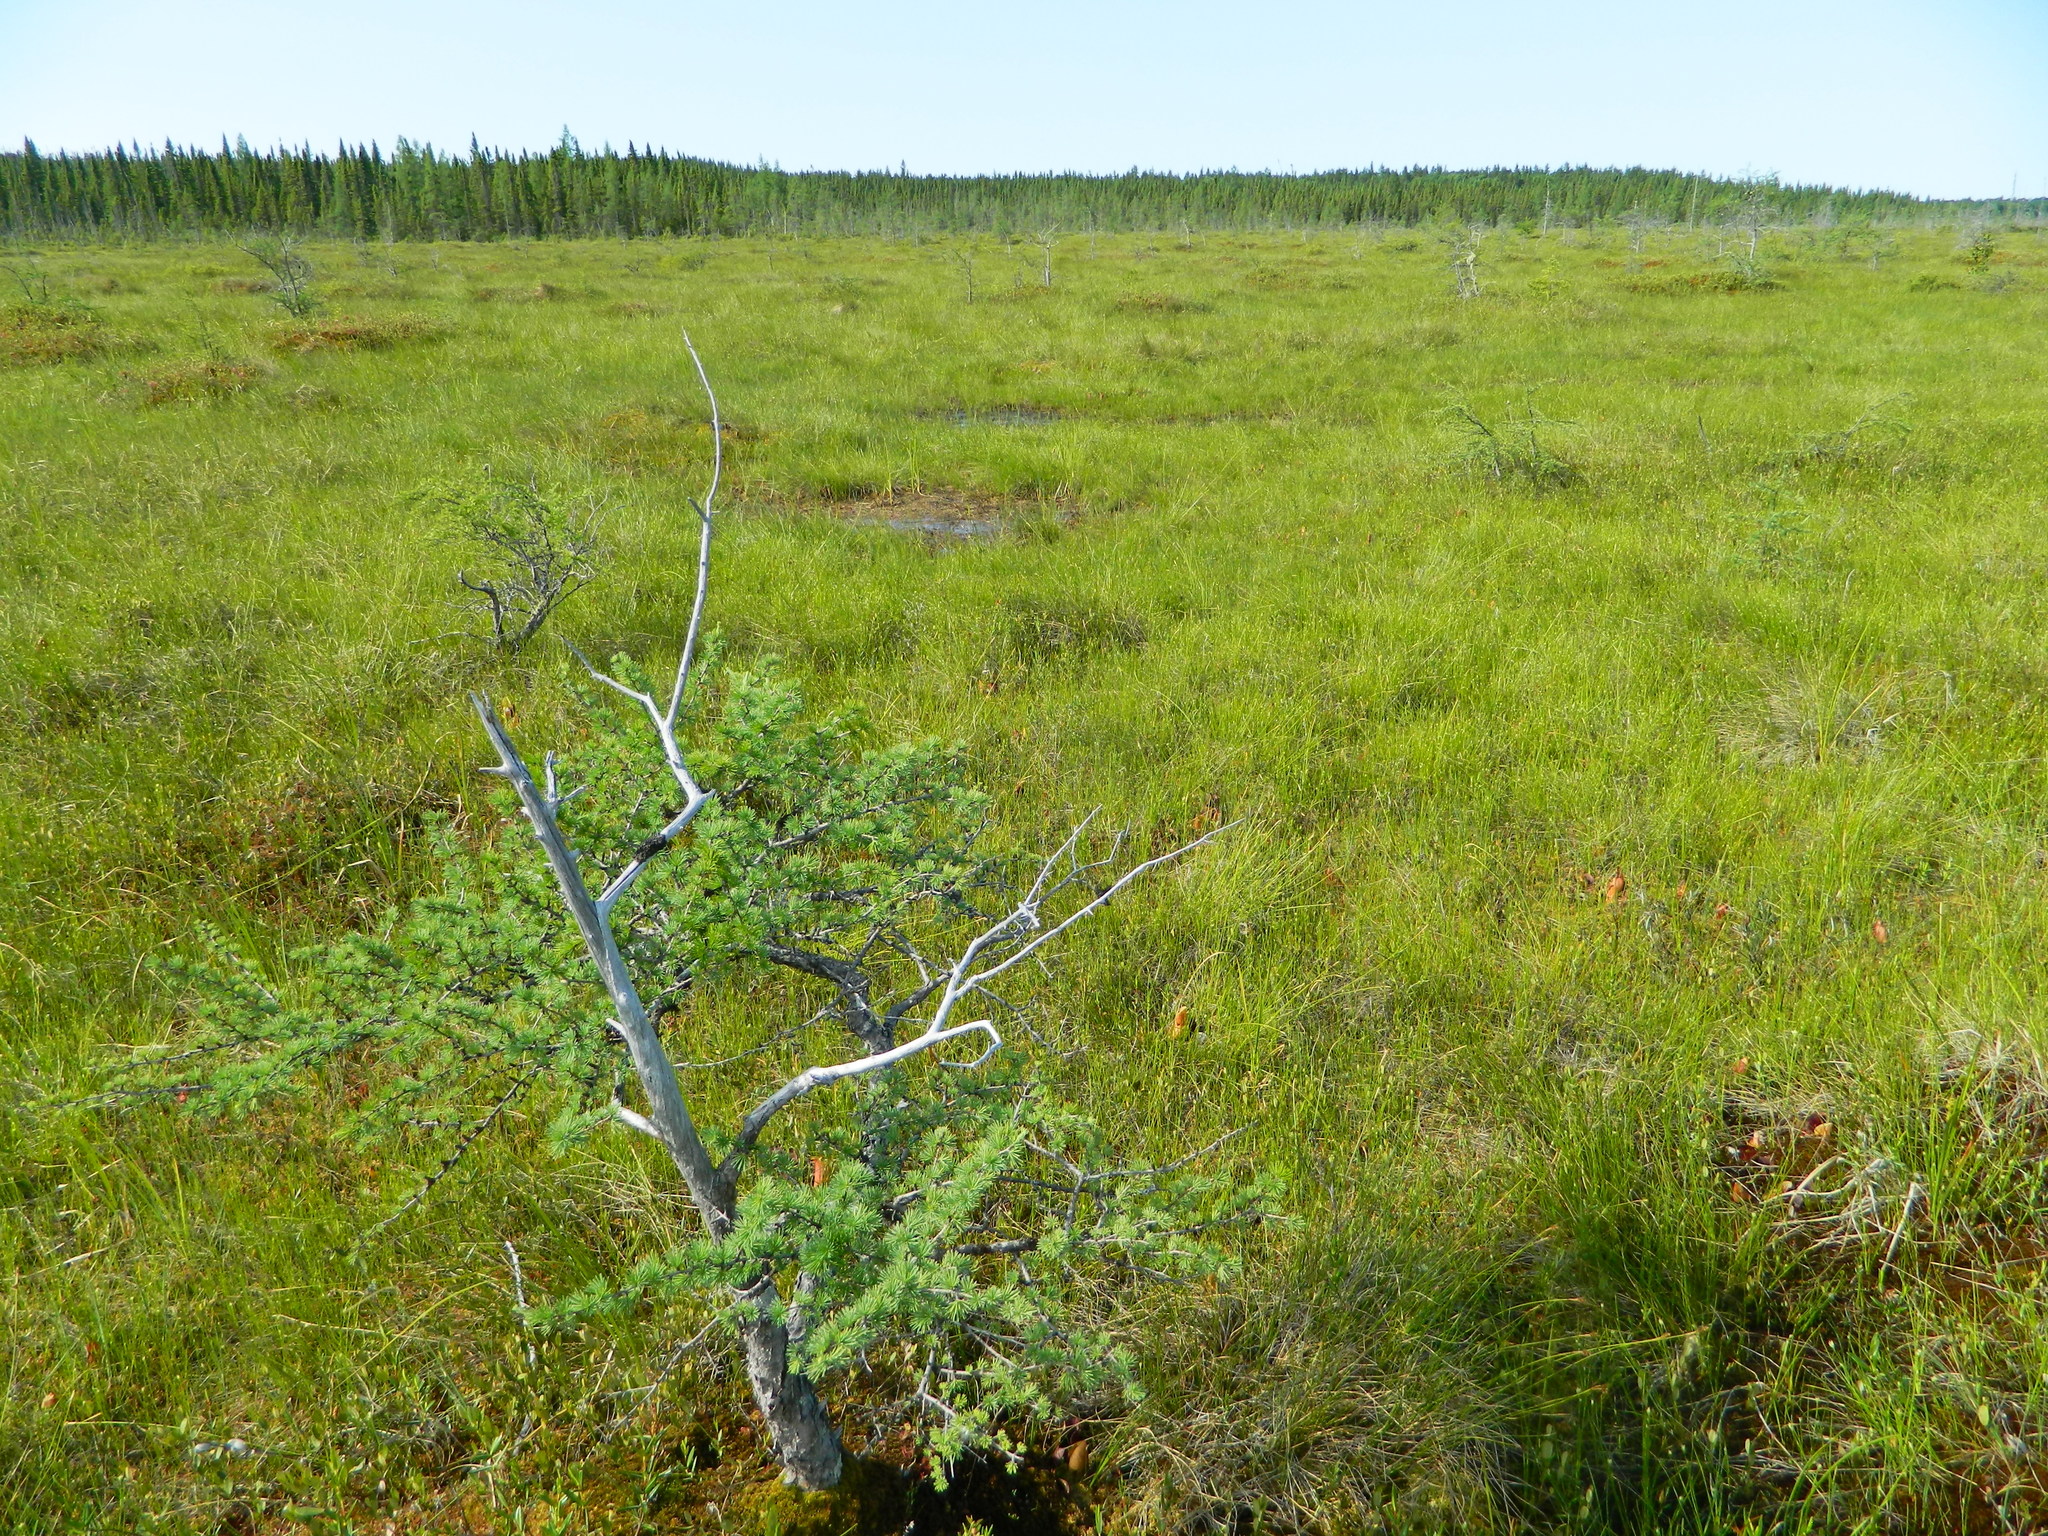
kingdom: Plantae
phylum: Tracheophyta
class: Pinopsida
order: Pinales
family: Pinaceae
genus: Larix
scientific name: Larix laricina
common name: American larch
